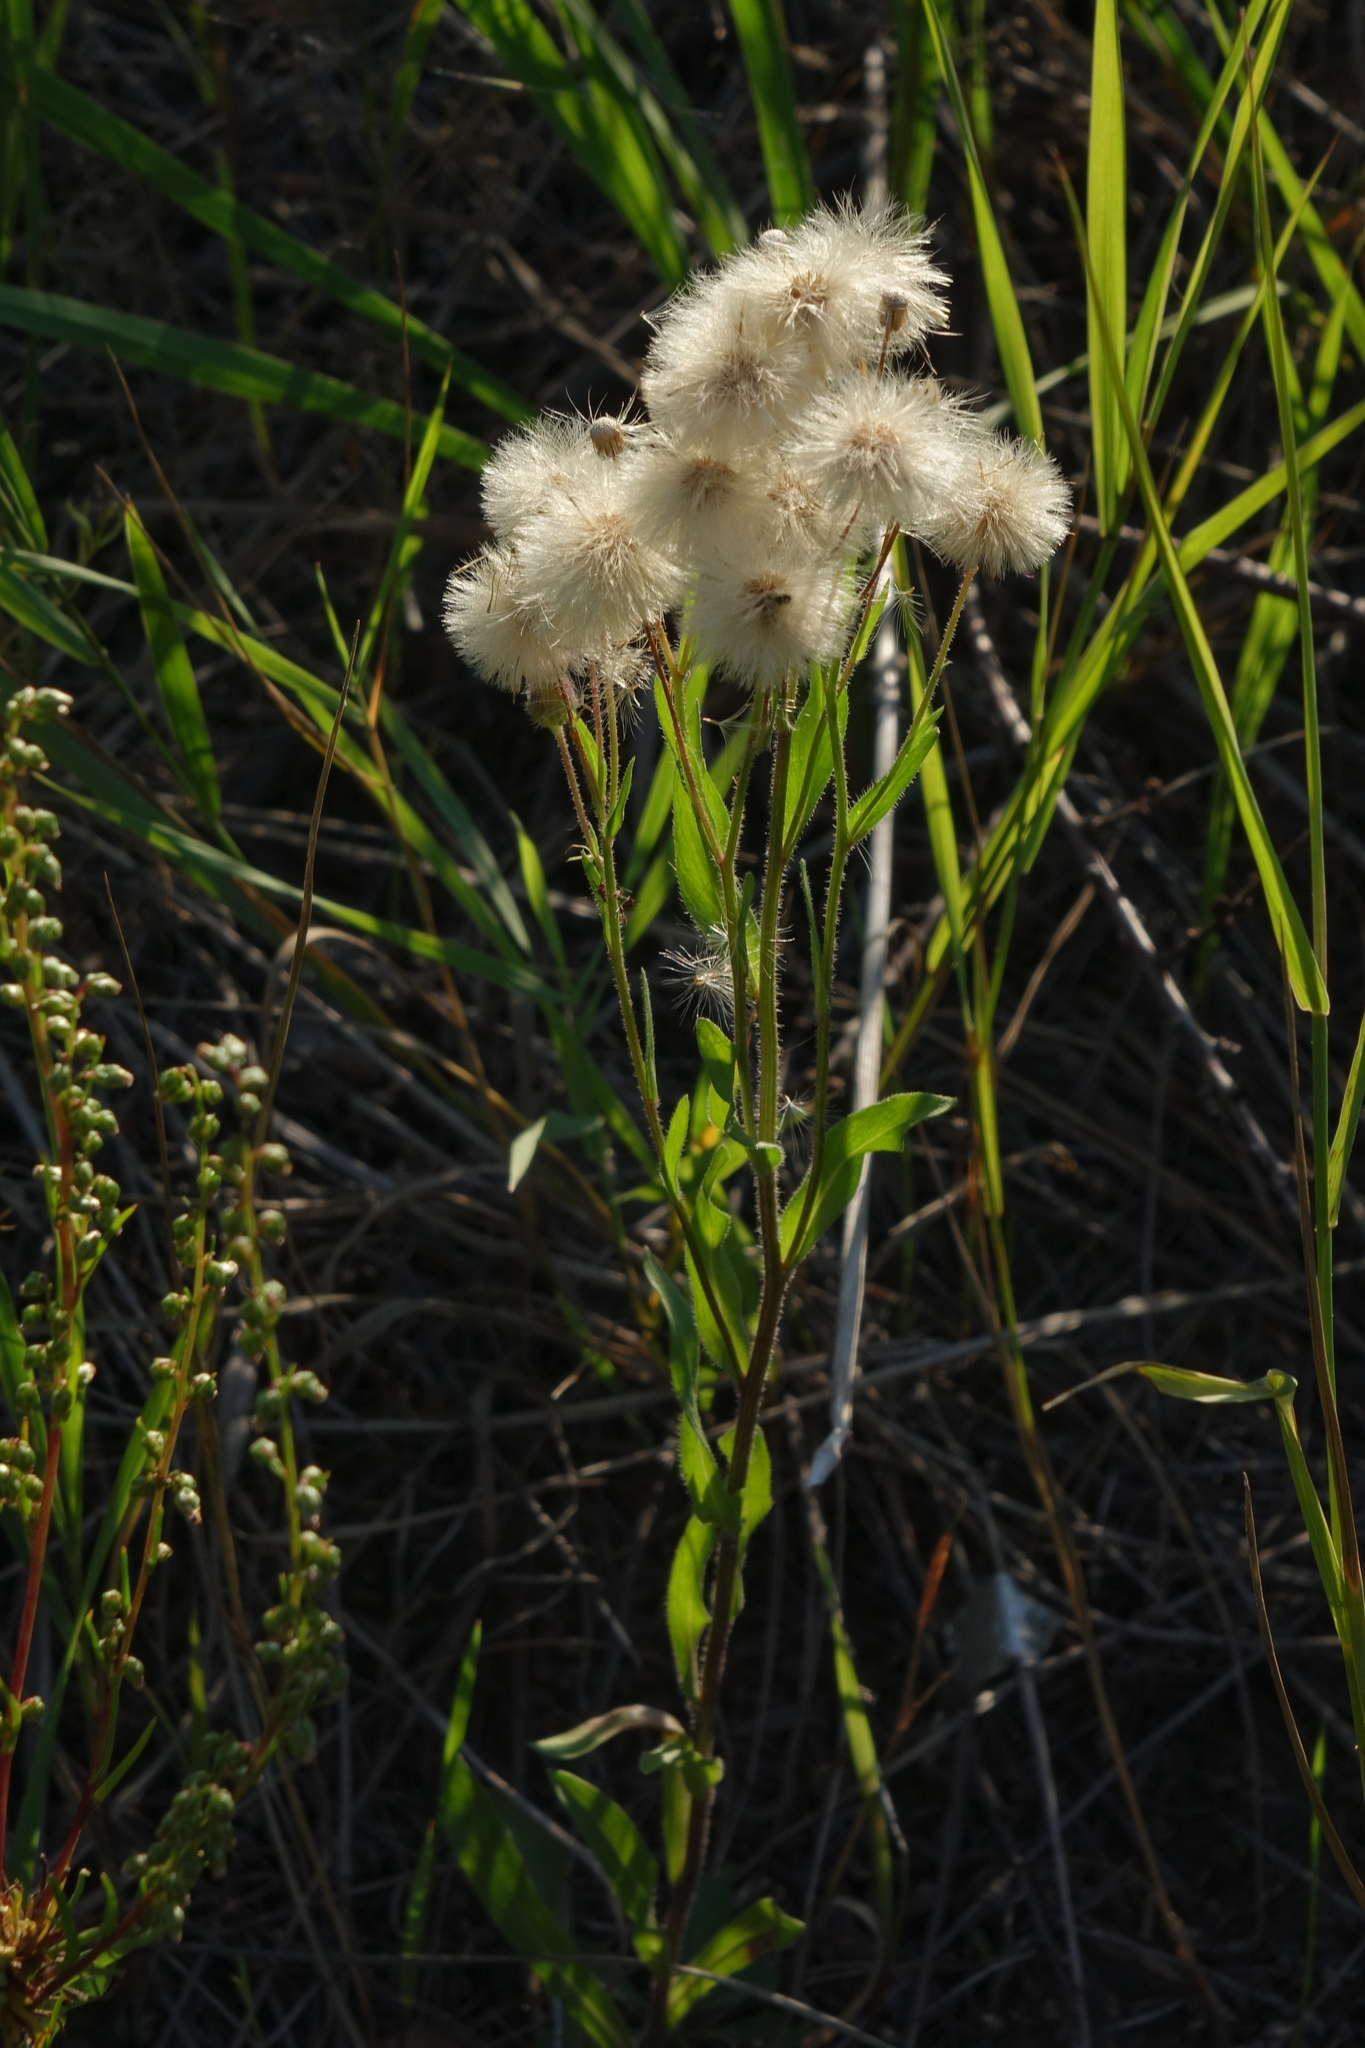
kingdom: Plantae
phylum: Tracheophyta
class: Magnoliopsida
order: Asterales
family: Asteraceae
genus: Erigeron
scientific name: Erigeron acris
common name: Blue fleabane
